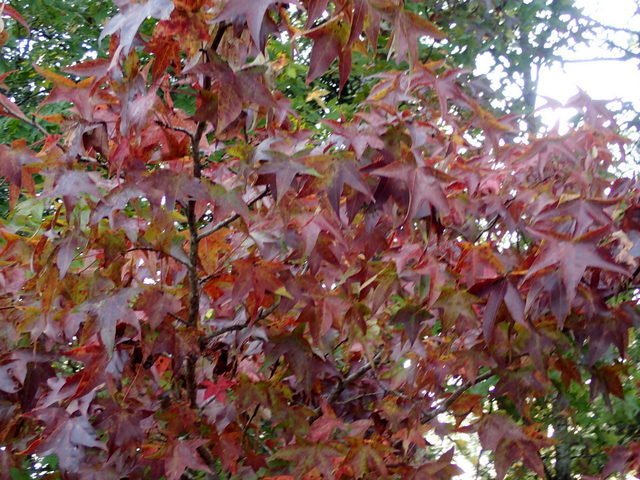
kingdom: Plantae
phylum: Tracheophyta
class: Magnoliopsida
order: Saxifragales
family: Altingiaceae
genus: Liquidambar
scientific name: Liquidambar styraciflua
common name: Sweet gum
